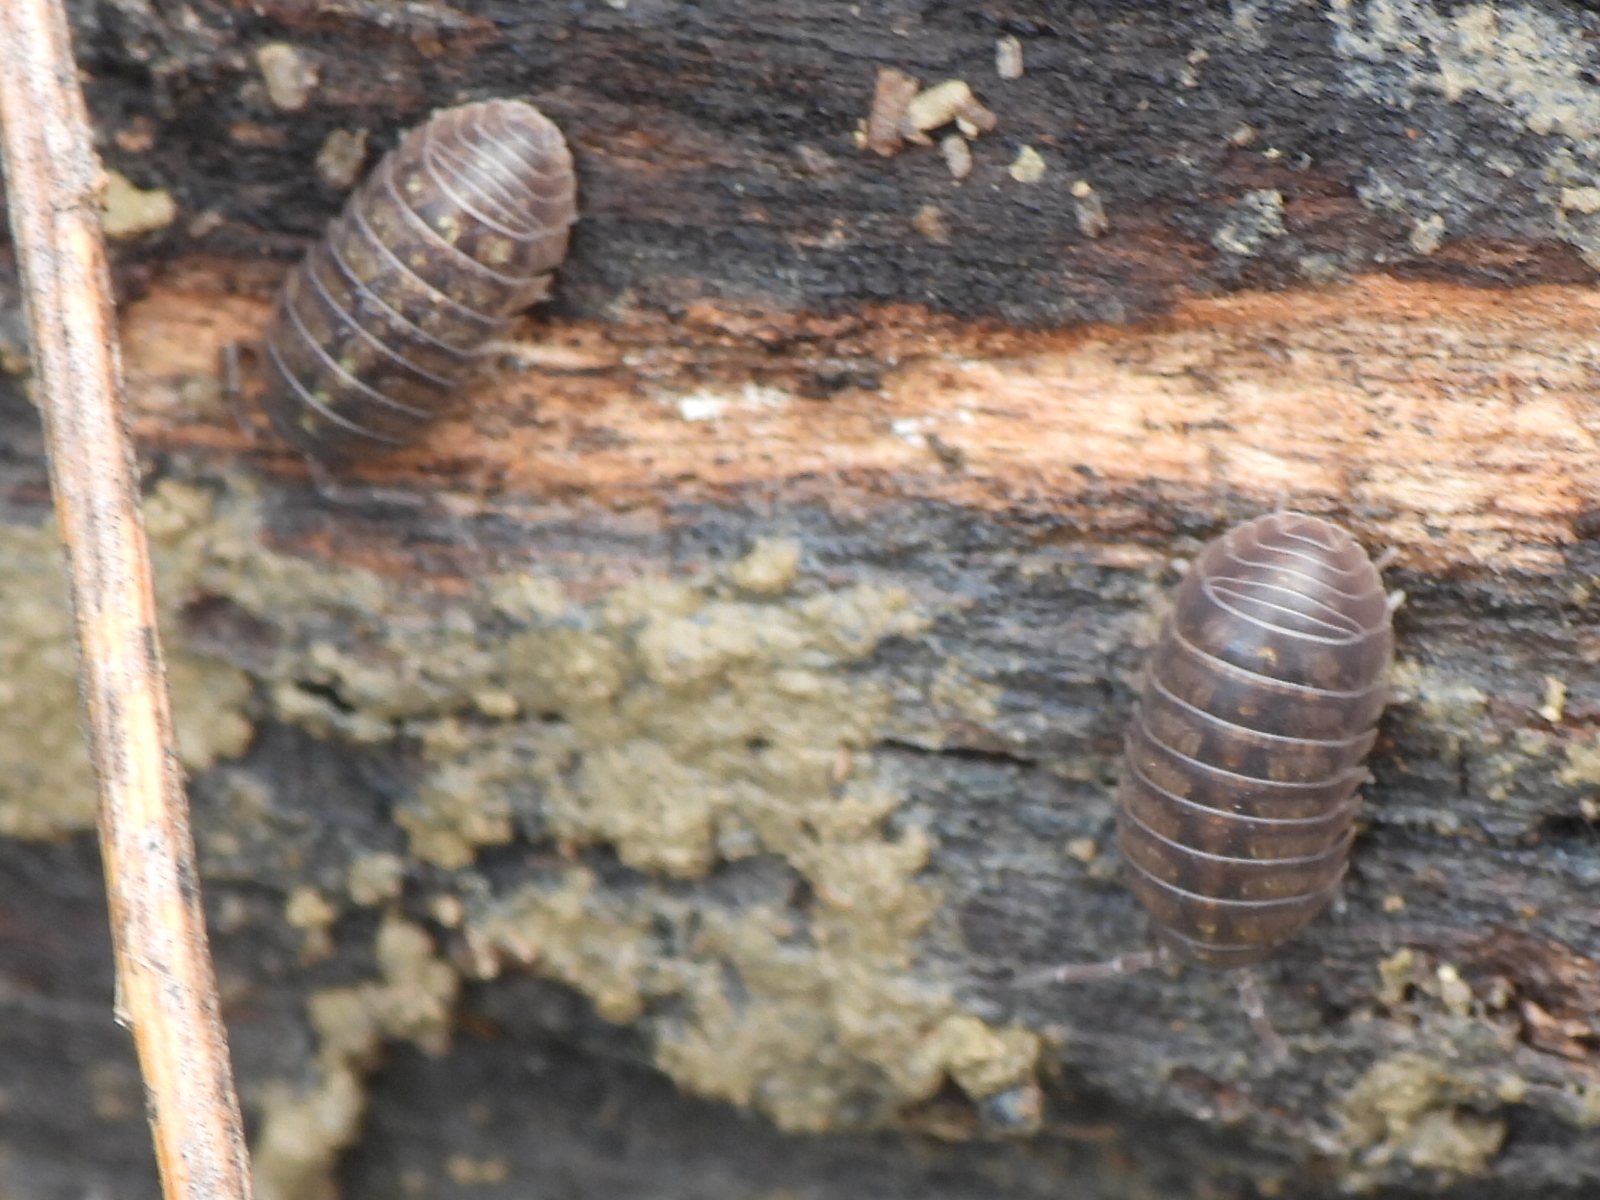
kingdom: Animalia
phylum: Arthropoda
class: Malacostraca
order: Isopoda
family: Armadillidiidae
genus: Armadillidium
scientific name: Armadillidium vulgare
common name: Common pill woodlouse
